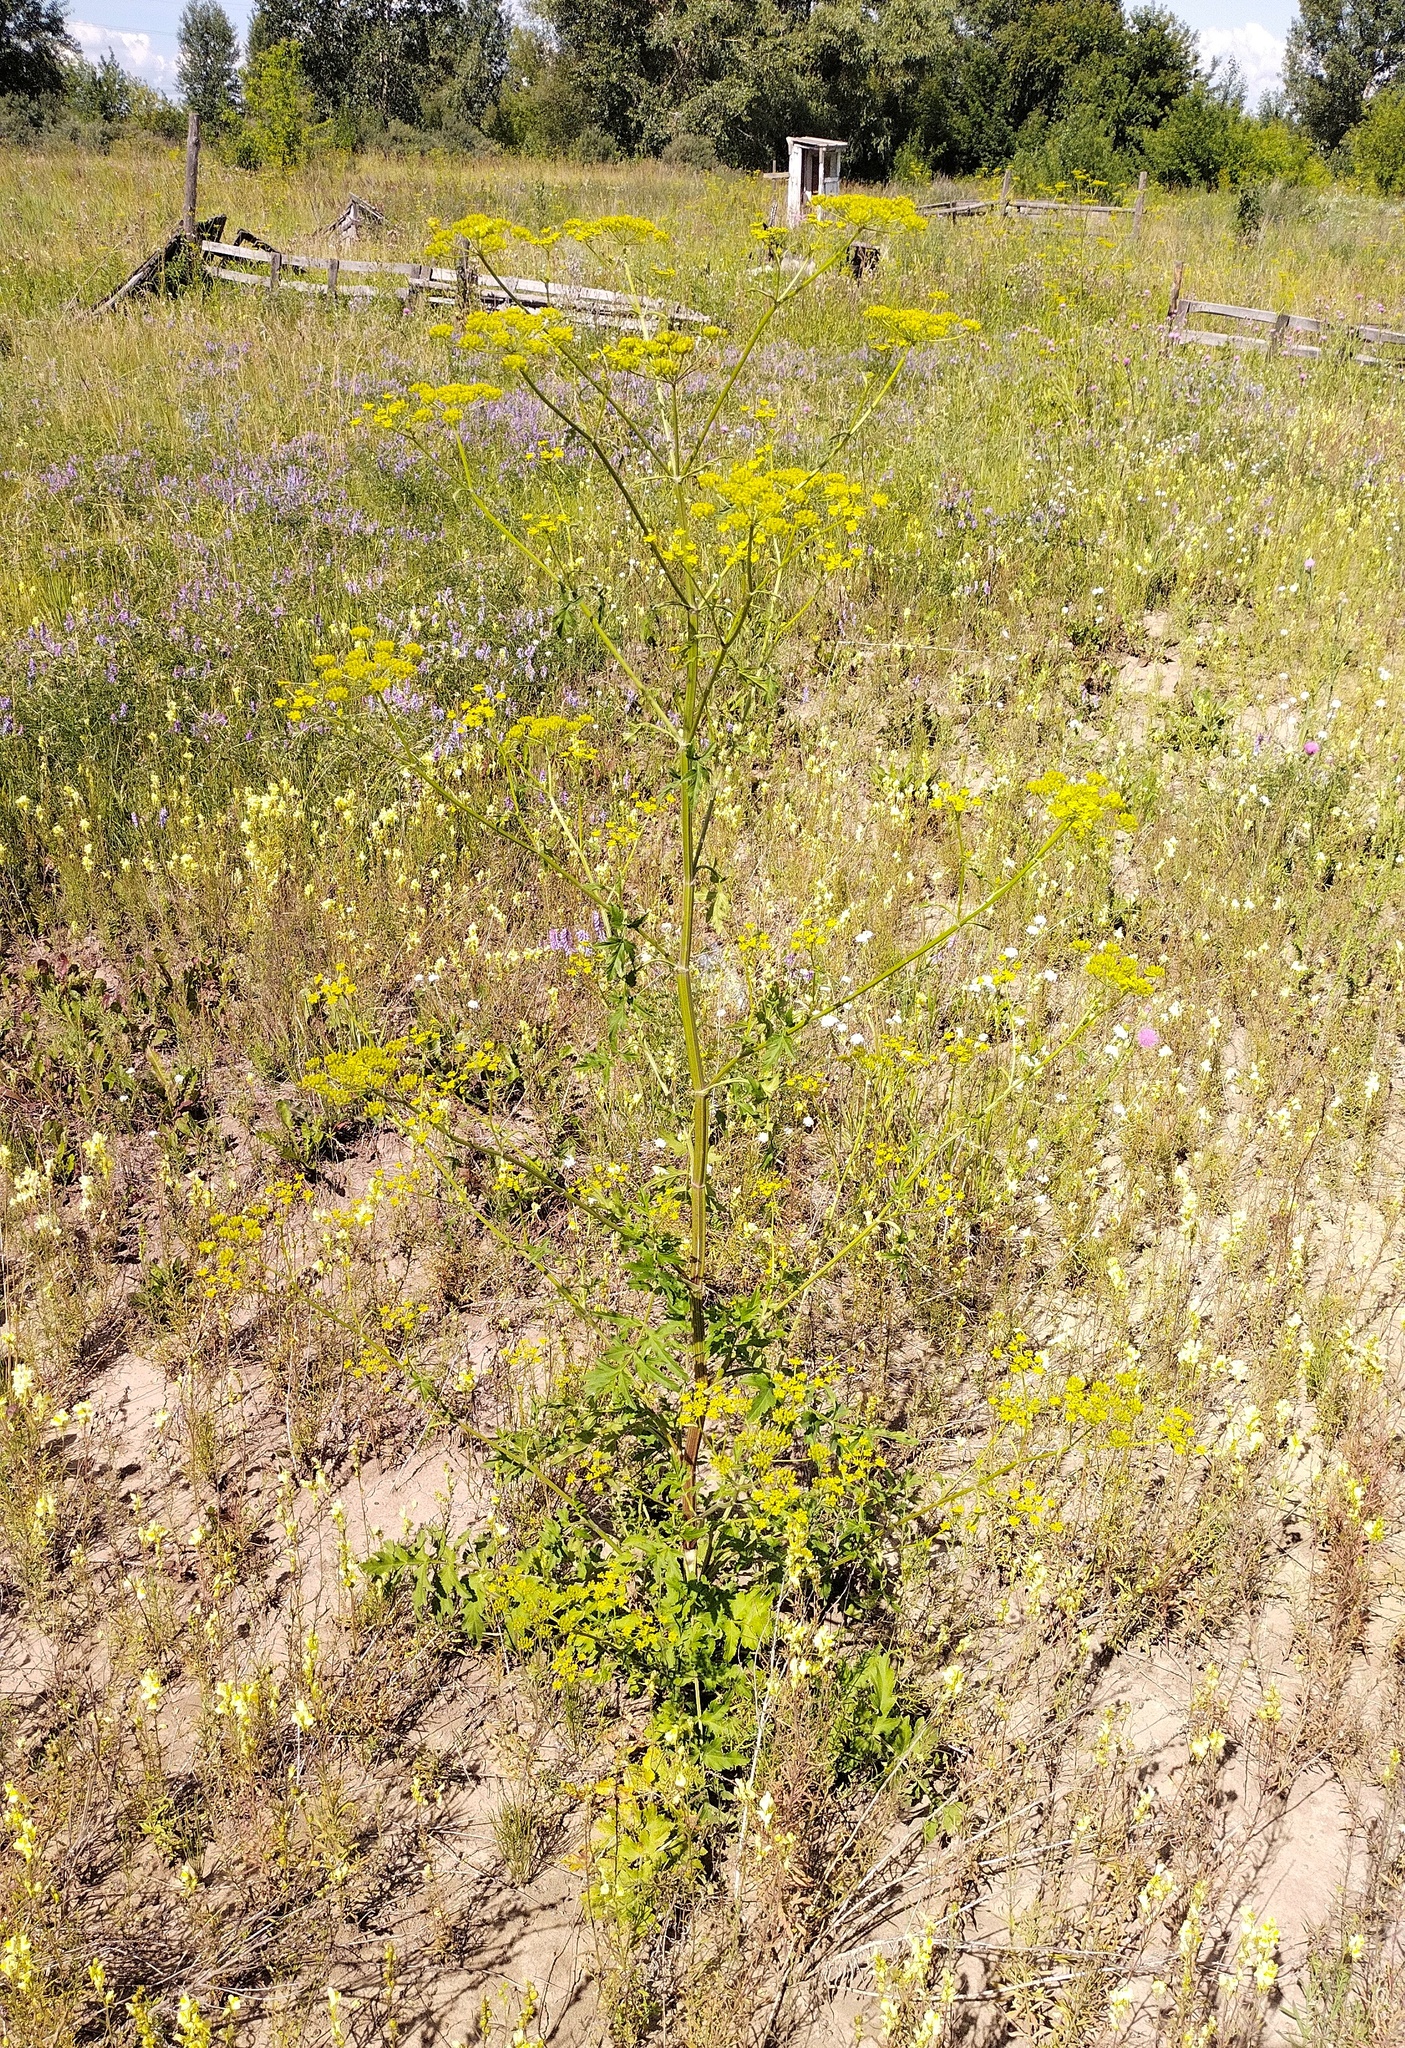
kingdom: Plantae
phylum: Tracheophyta
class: Magnoliopsida
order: Apiales
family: Apiaceae
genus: Pastinaca
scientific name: Pastinaca sativa
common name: Wild parsnip
